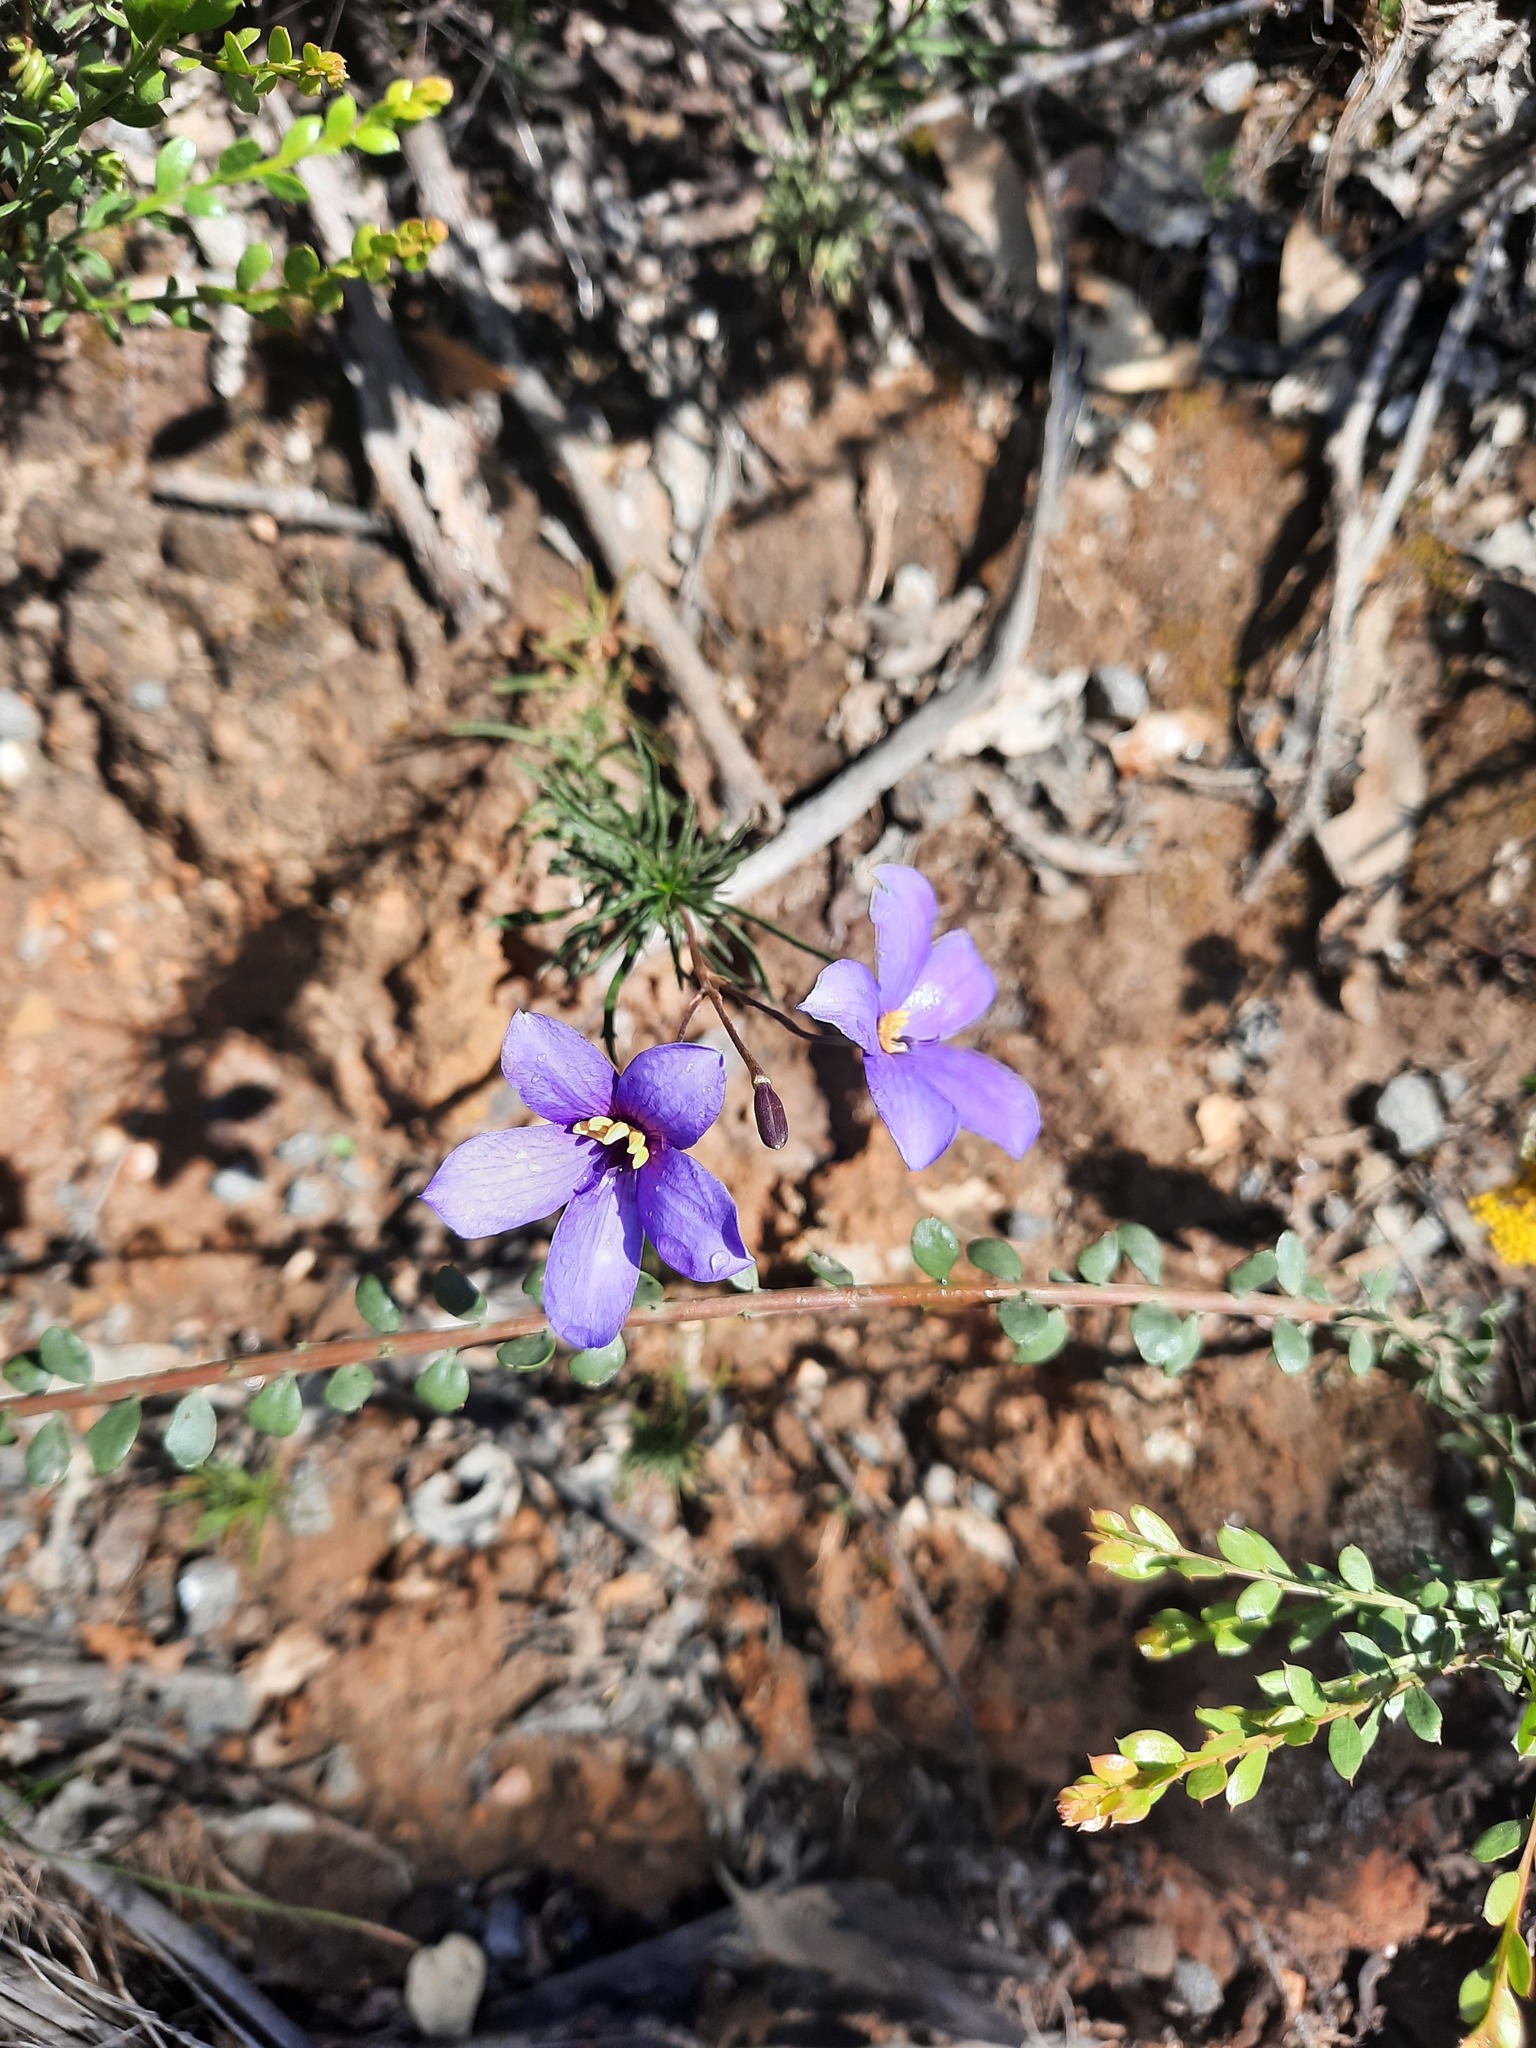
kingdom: Plantae
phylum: Tracheophyta
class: Magnoliopsida
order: Apiales
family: Pittosporaceae
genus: Cheiranthera
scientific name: Cheiranthera linearis
